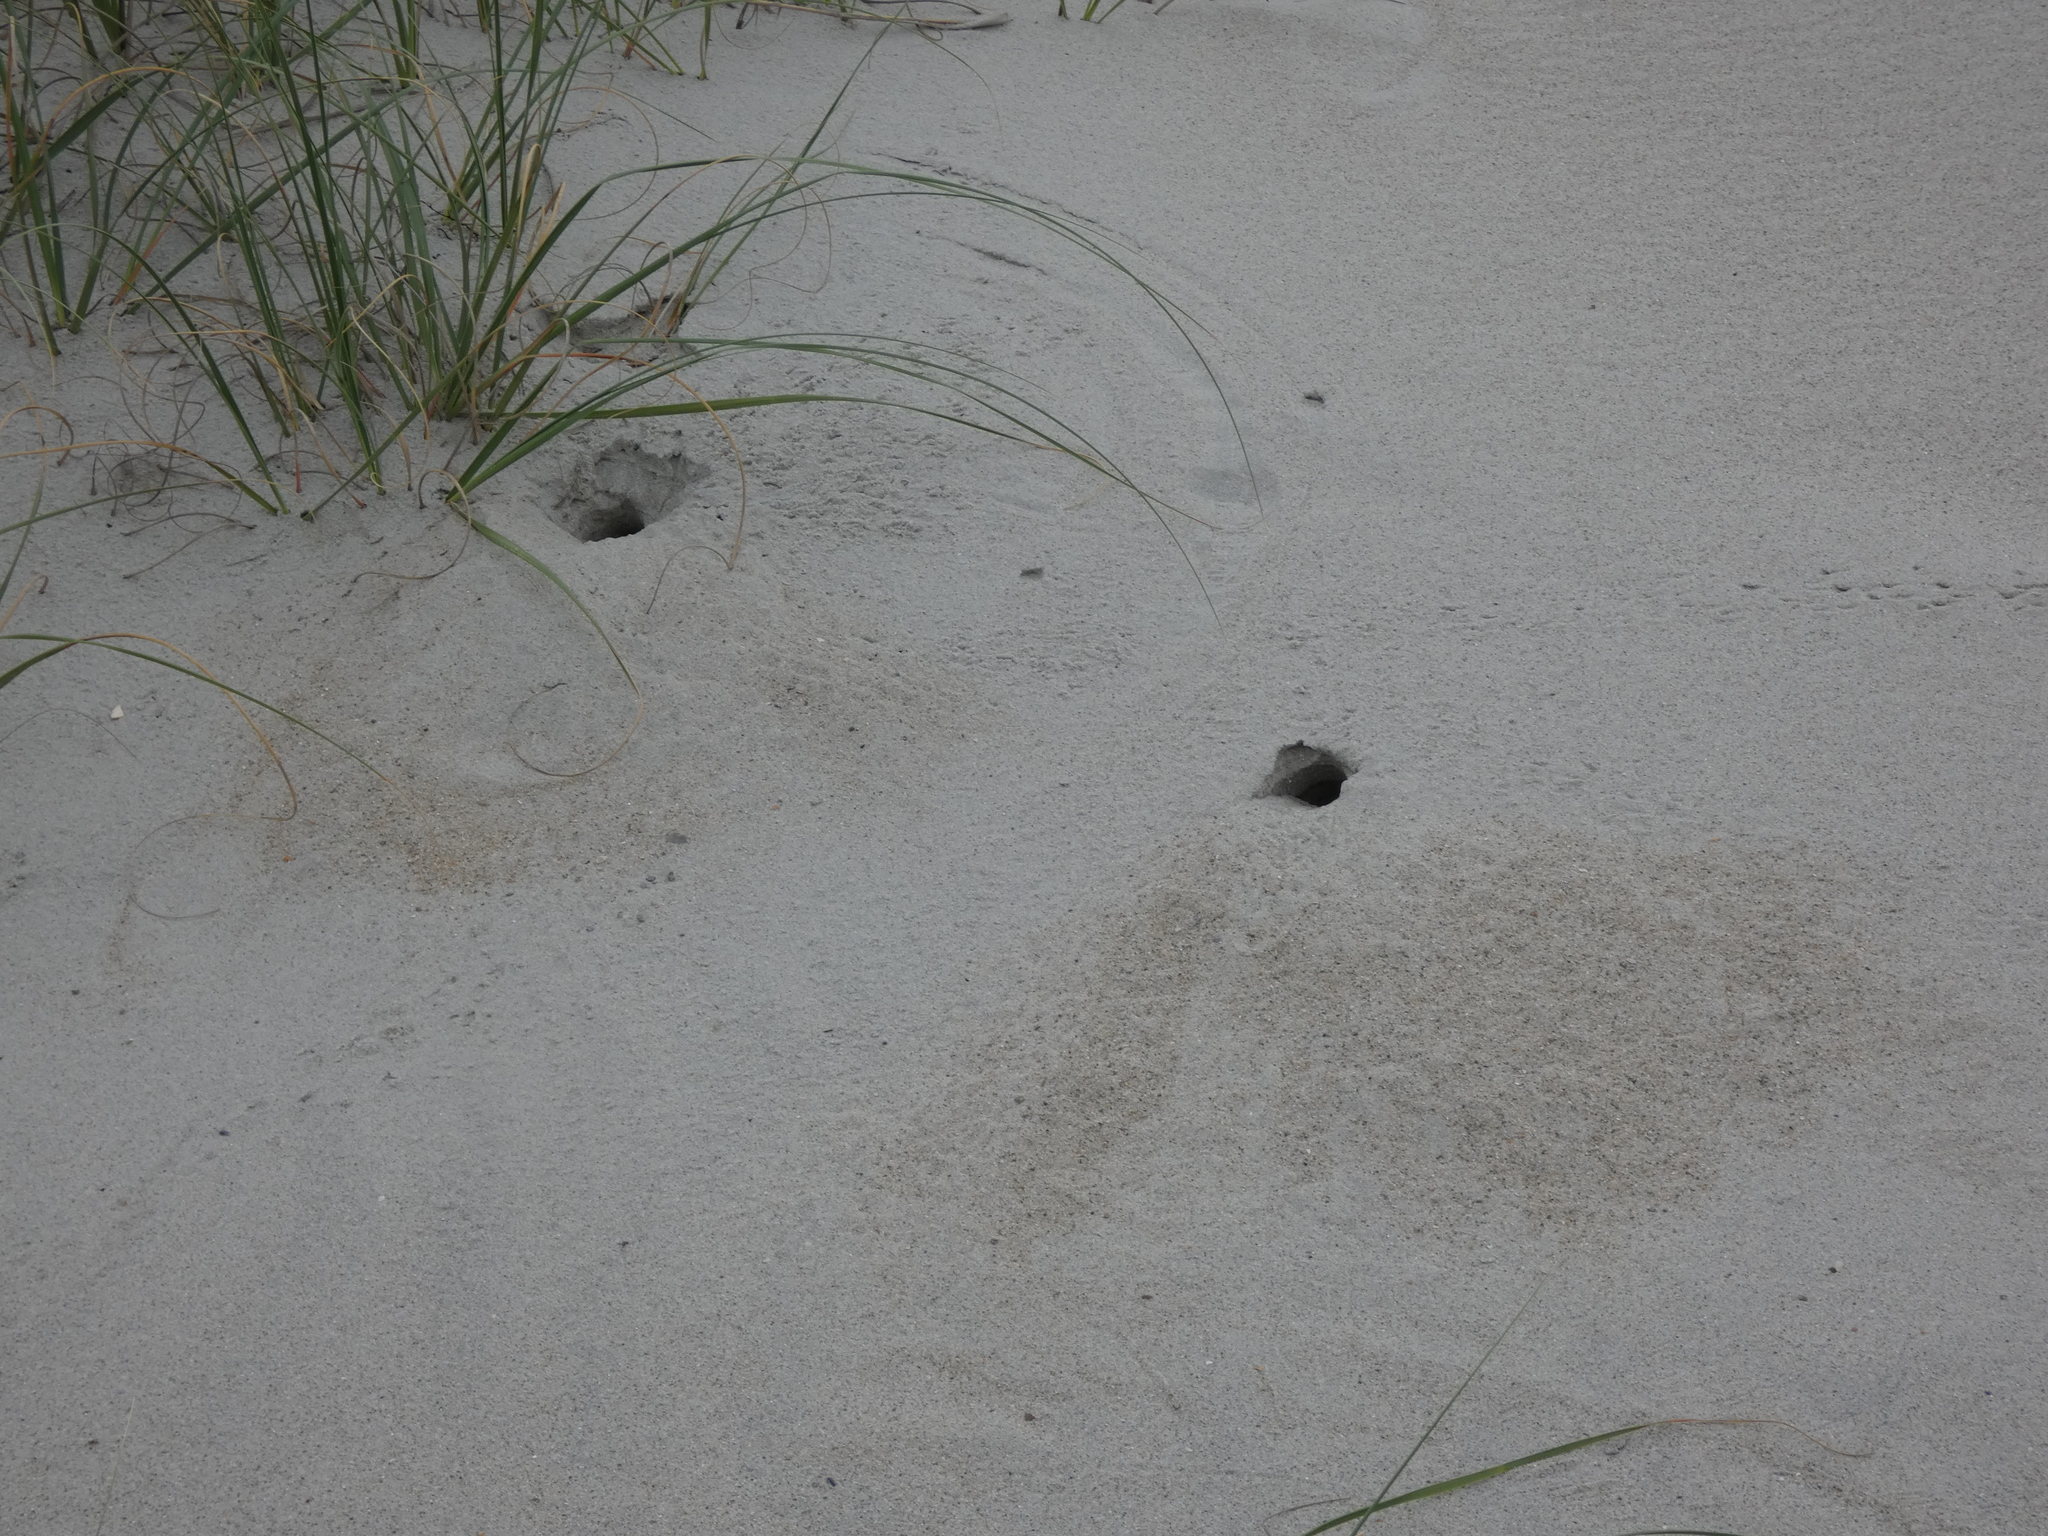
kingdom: Animalia
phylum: Arthropoda
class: Malacostraca
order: Decapoda
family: Ocypodidae
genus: Ocypode
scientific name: Ocypode quadrata
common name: Ghost crab
